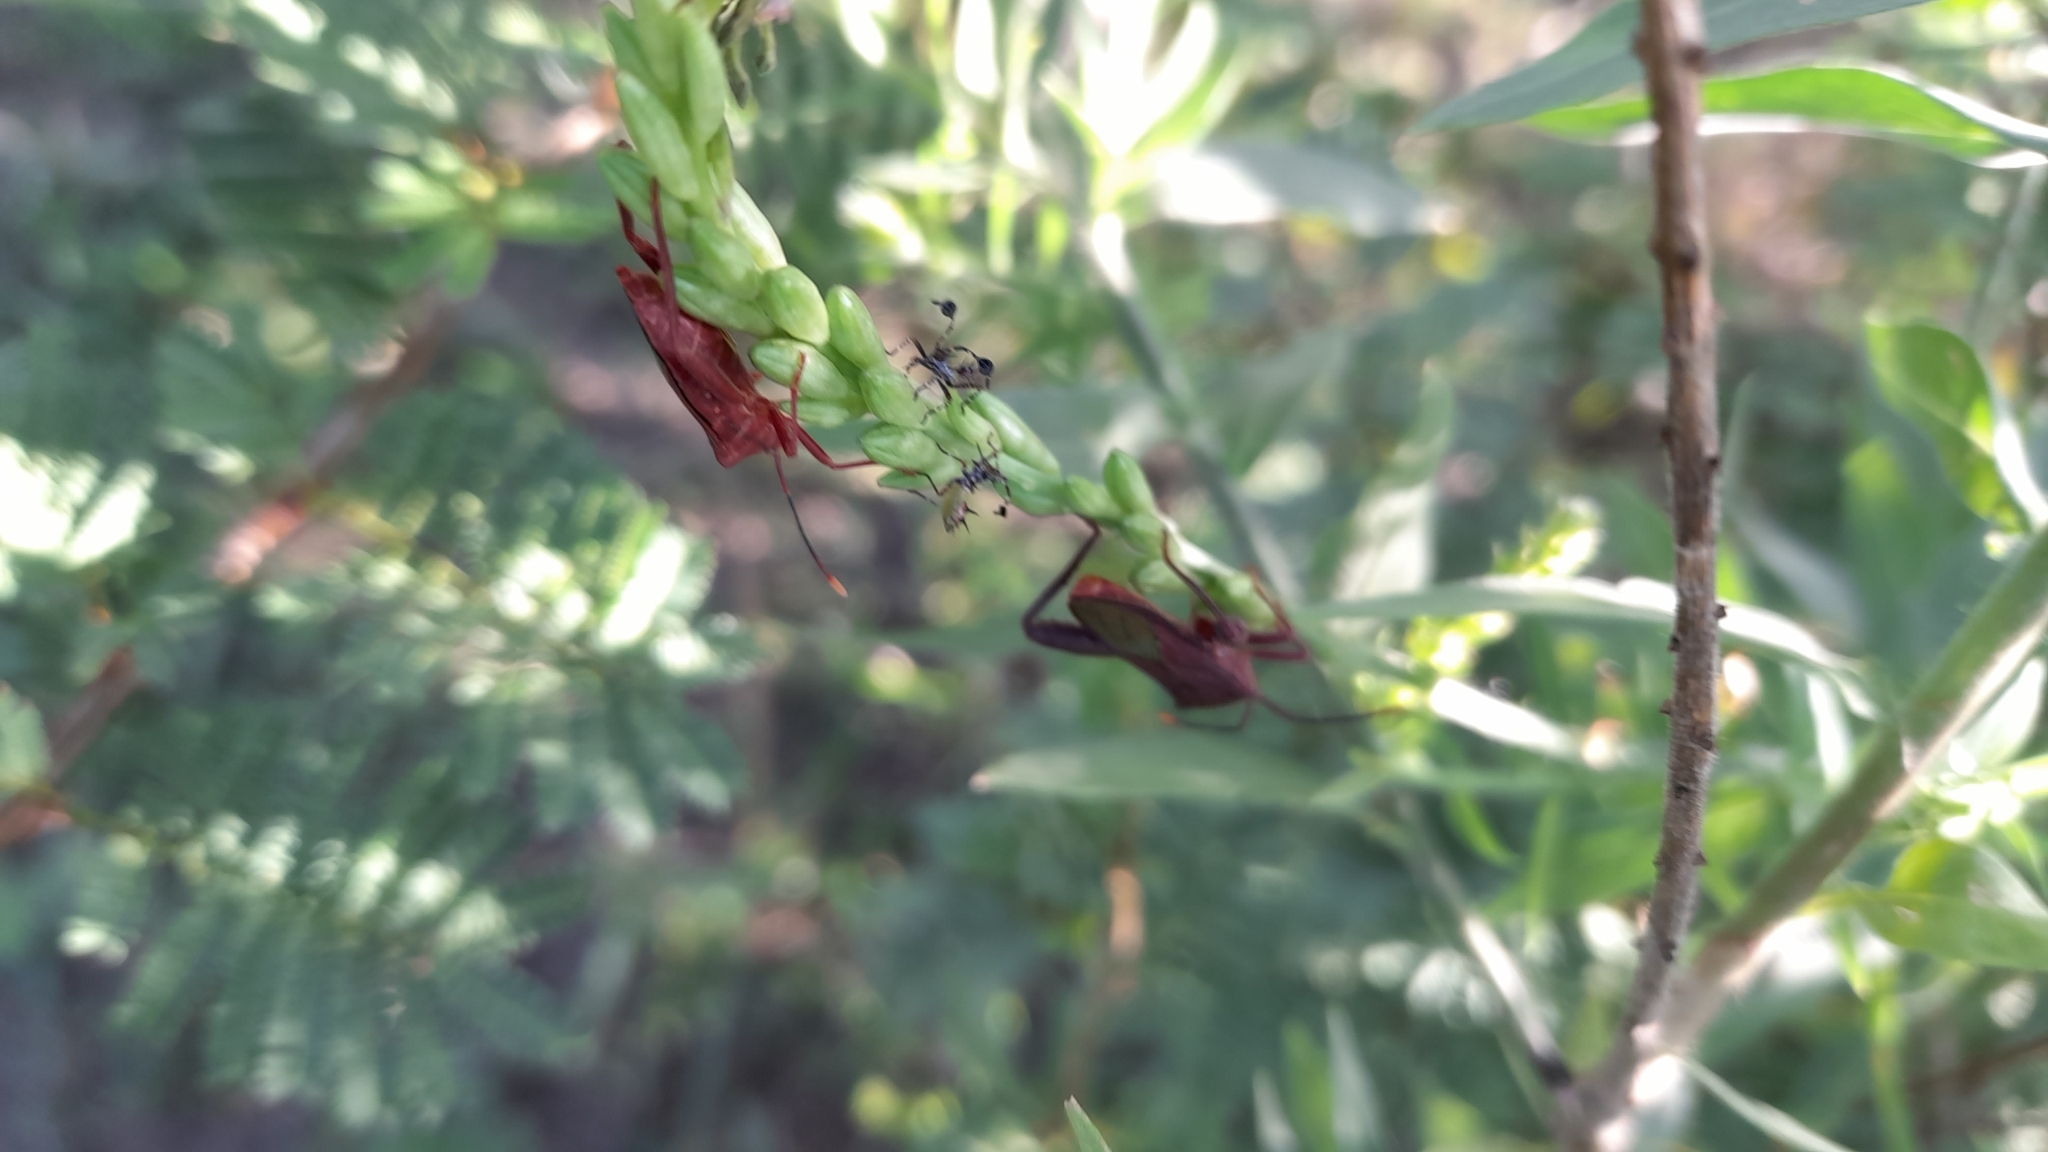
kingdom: Animalia
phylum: Arthropoda
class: Insecta
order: Hemiptera
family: Coreidae
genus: Athaumastus
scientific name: Athaumastus haematicus
